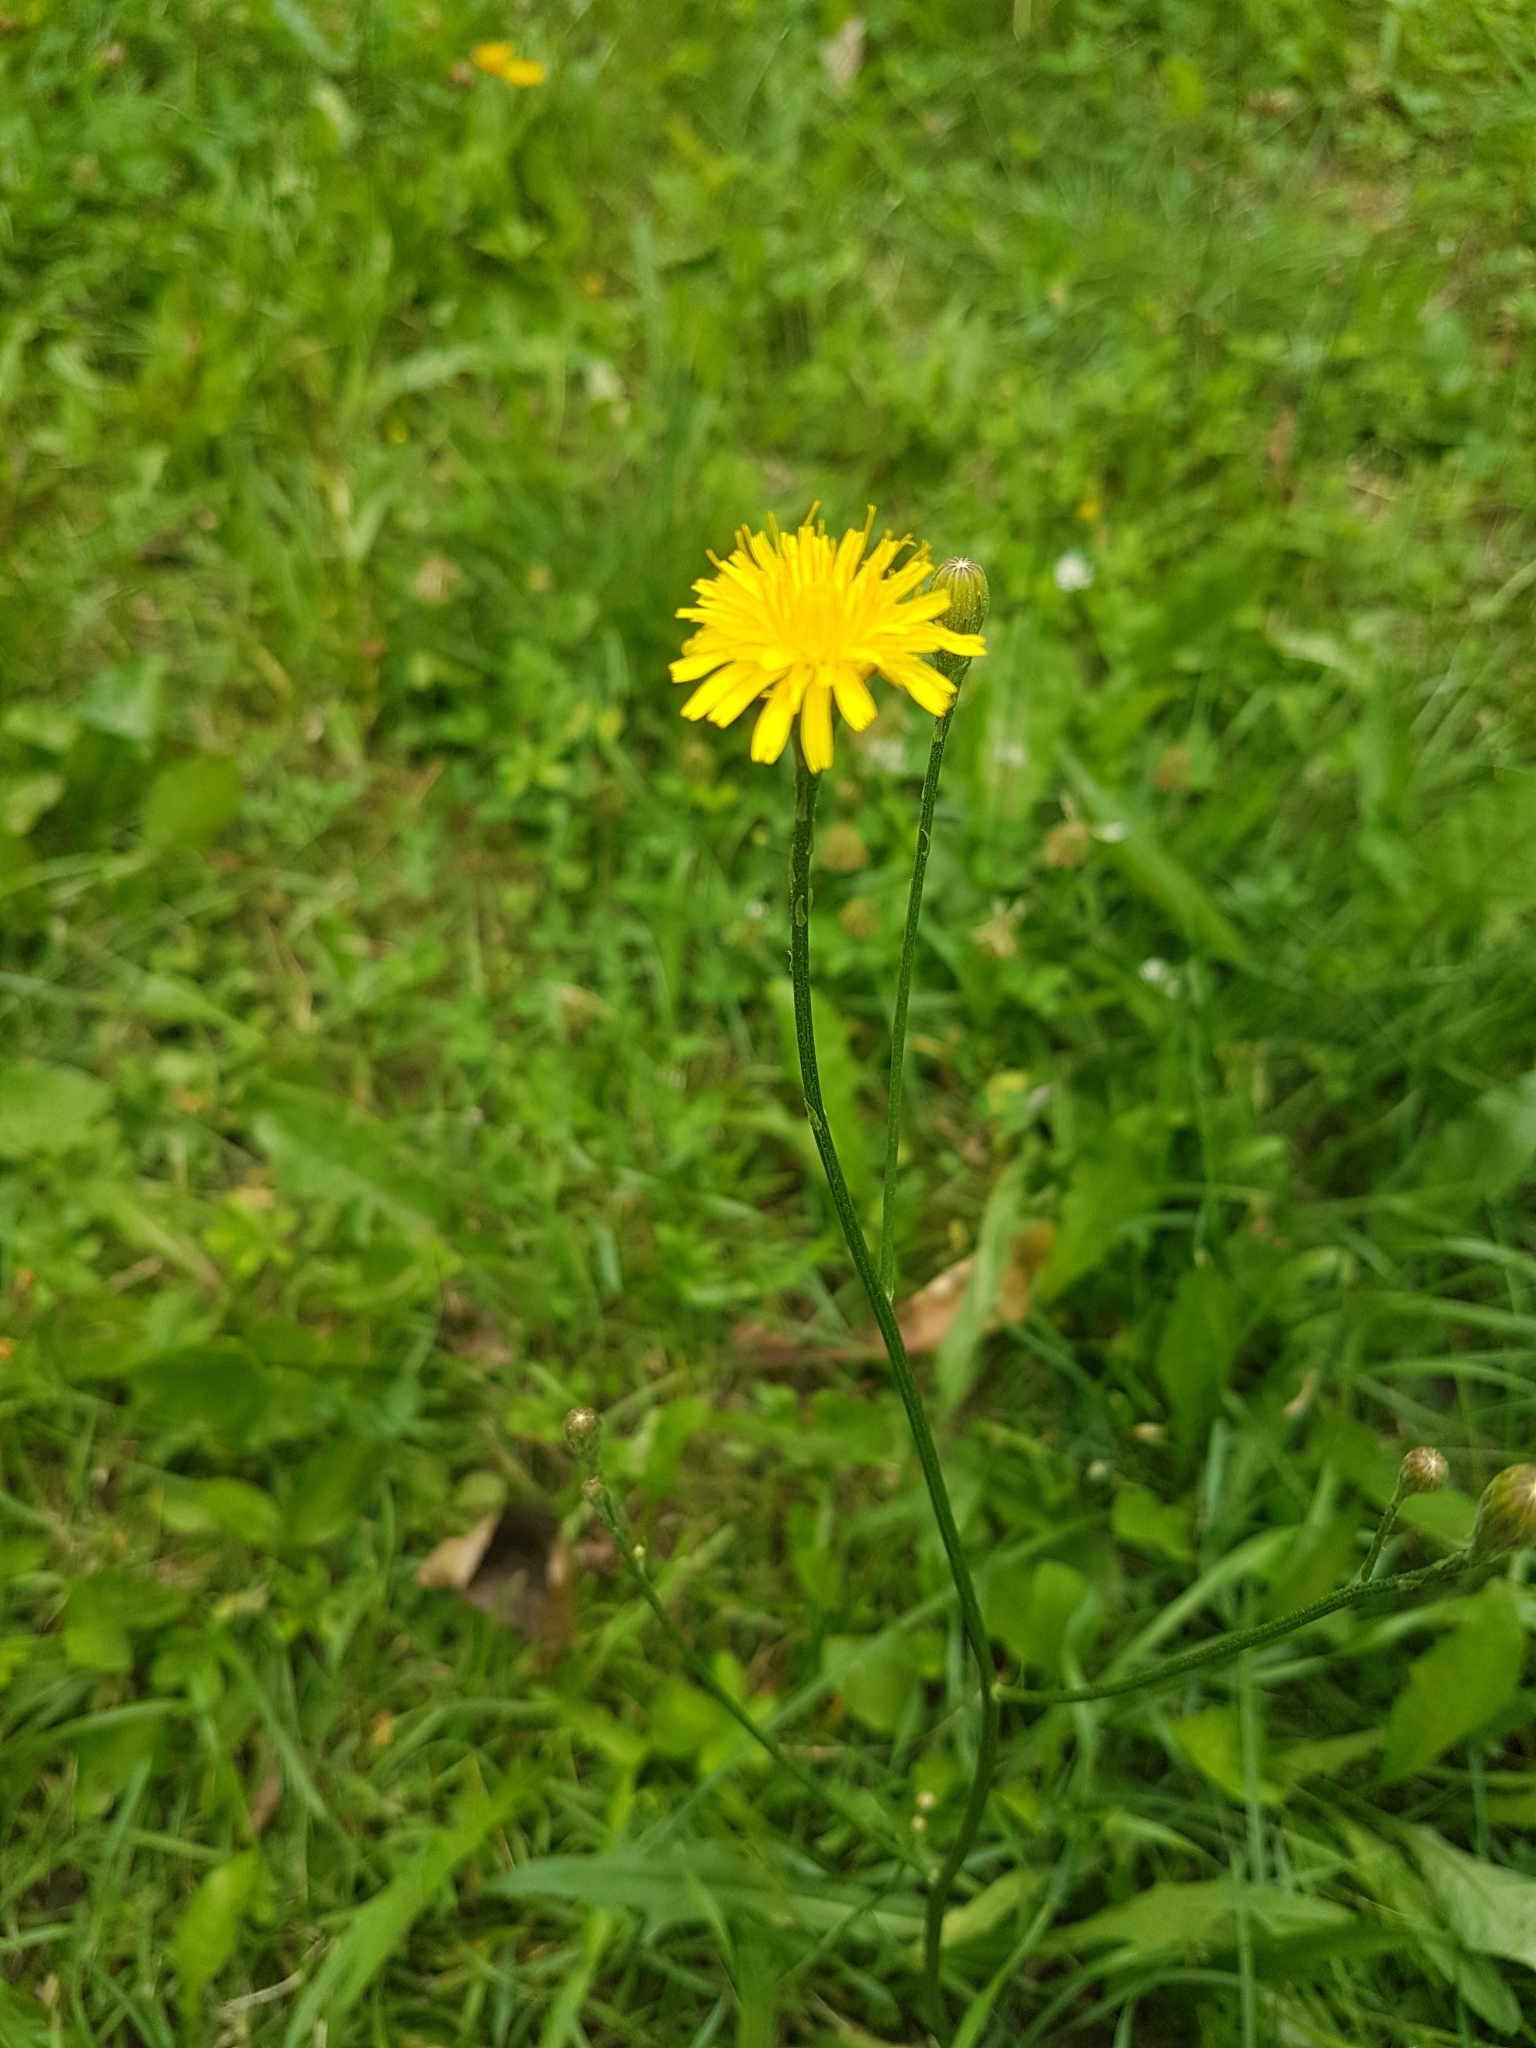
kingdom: Plantae
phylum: Tracheophyta
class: Magnoliopsida
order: Asterales
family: Asteraceae
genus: Scorzoneroides
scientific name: Scorzoneroides autumnalis
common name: Autumn hawkbit
